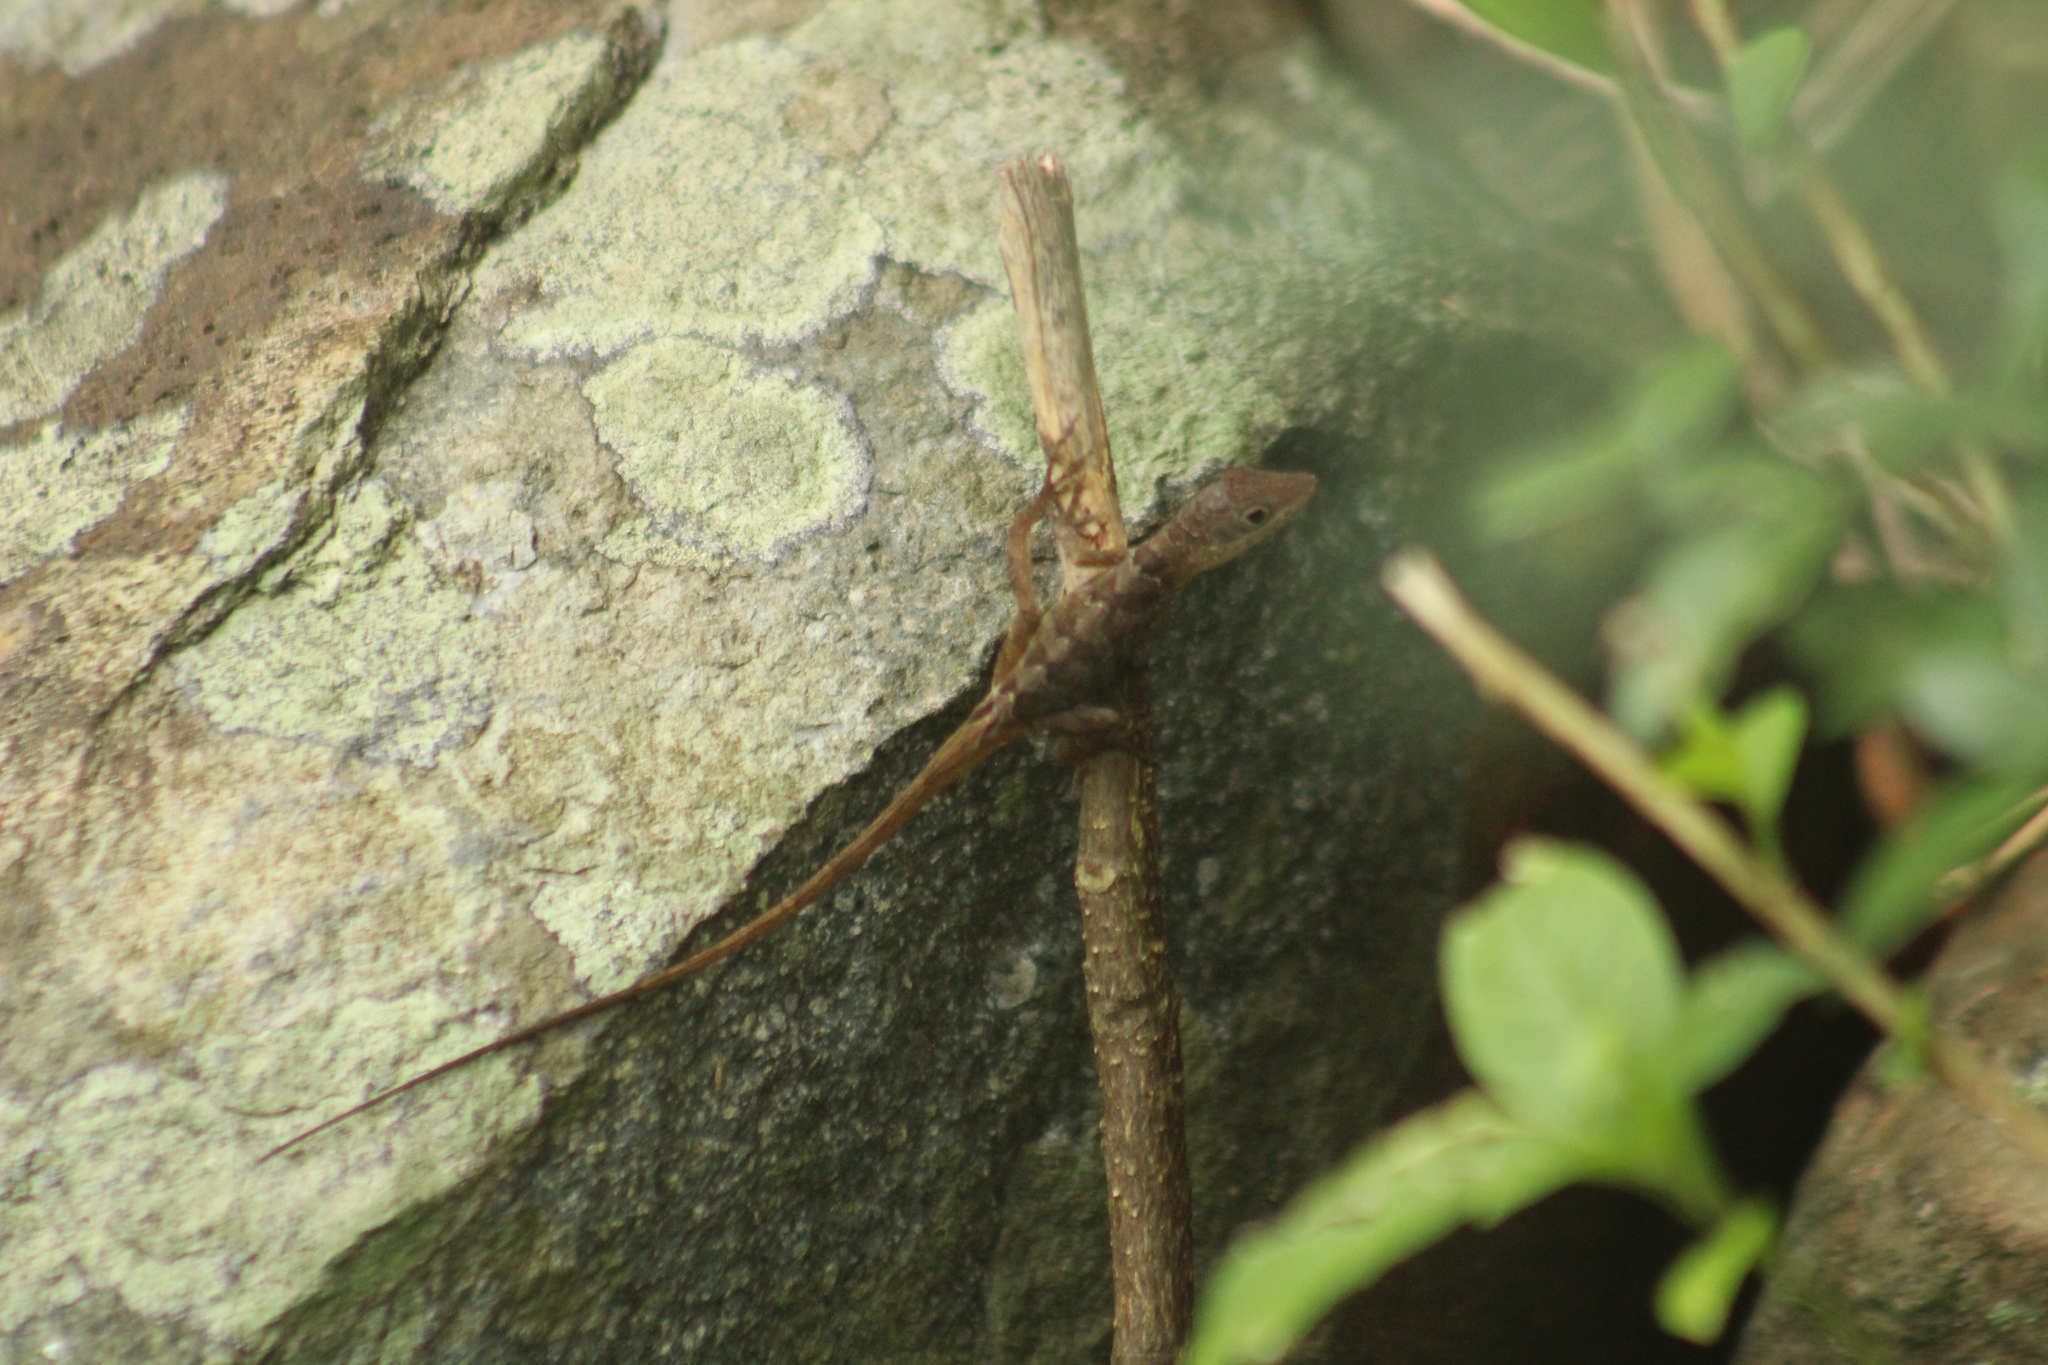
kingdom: Animalia
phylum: Chordata
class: Squamata
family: Dactyloidae
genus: Anolis
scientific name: Anolis pogus
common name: Anguilla bank bush anole
